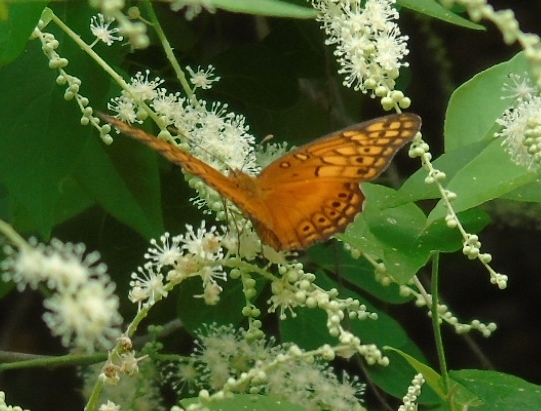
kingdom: Animalia
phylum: Arthropoda
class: Insecta
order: Lepidoptera
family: Nymphalidae
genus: Euptoieta
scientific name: Euptoieta hegesia
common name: Mexican fritillary
